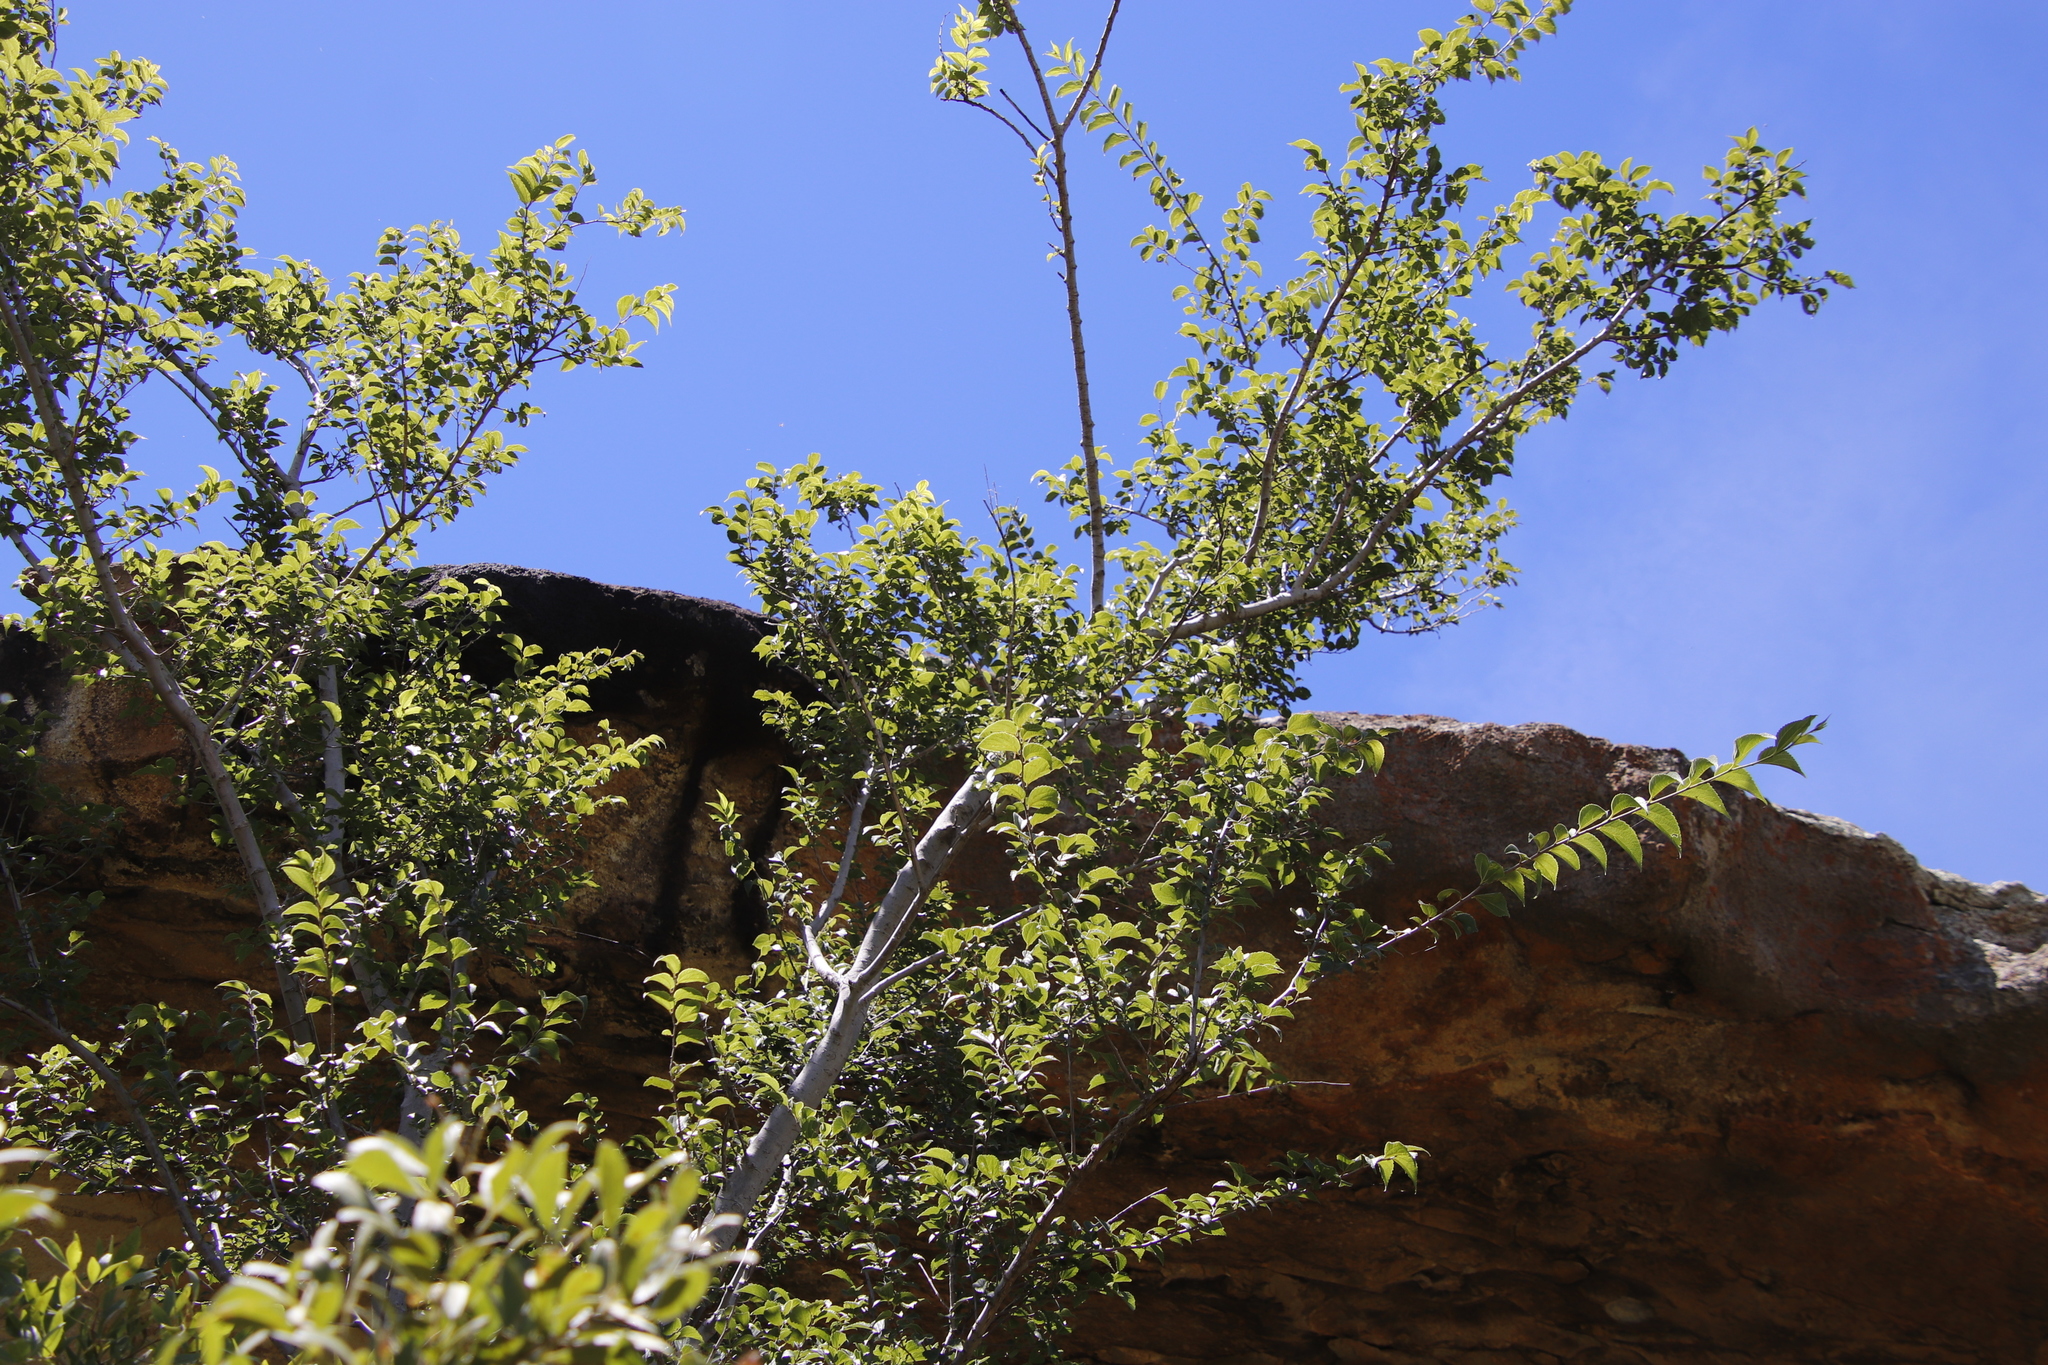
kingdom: Plantae
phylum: Tracheophyta
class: Magnoliopsida
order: Rosales
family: Cannabaceae
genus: Celtis
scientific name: Celtis africana
